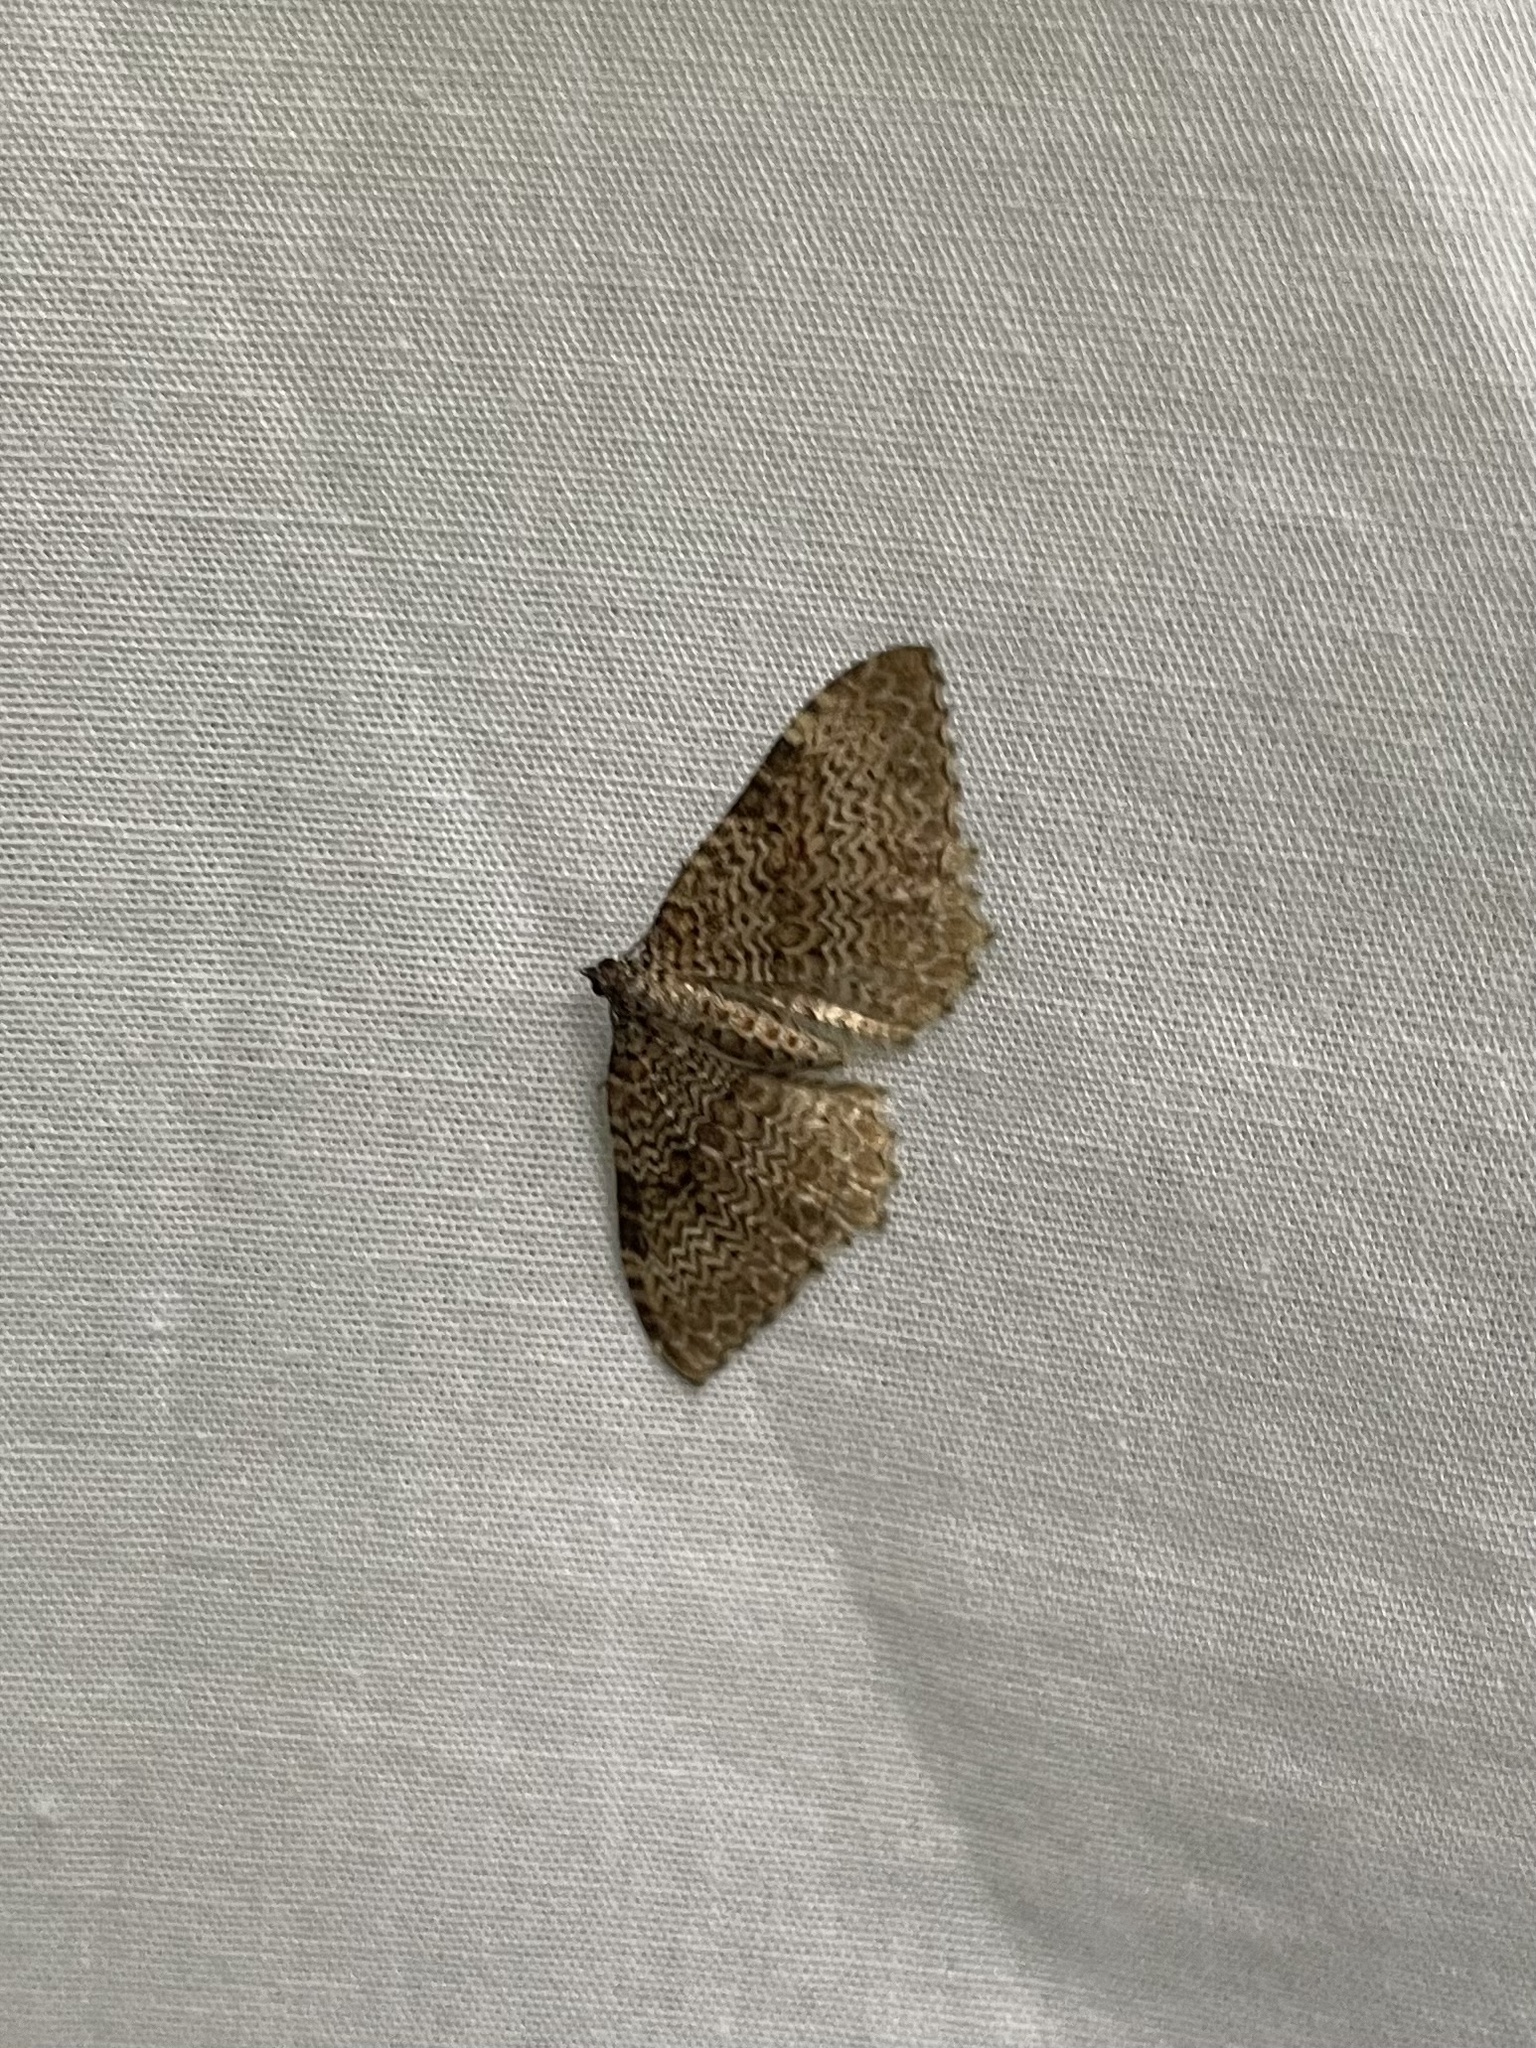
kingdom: Animalia
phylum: Arthropoda
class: Insecta
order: Lepidoptera
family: Geometridae
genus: Rheumaptera
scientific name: Rheumaptera undulata
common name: Scallop shell
